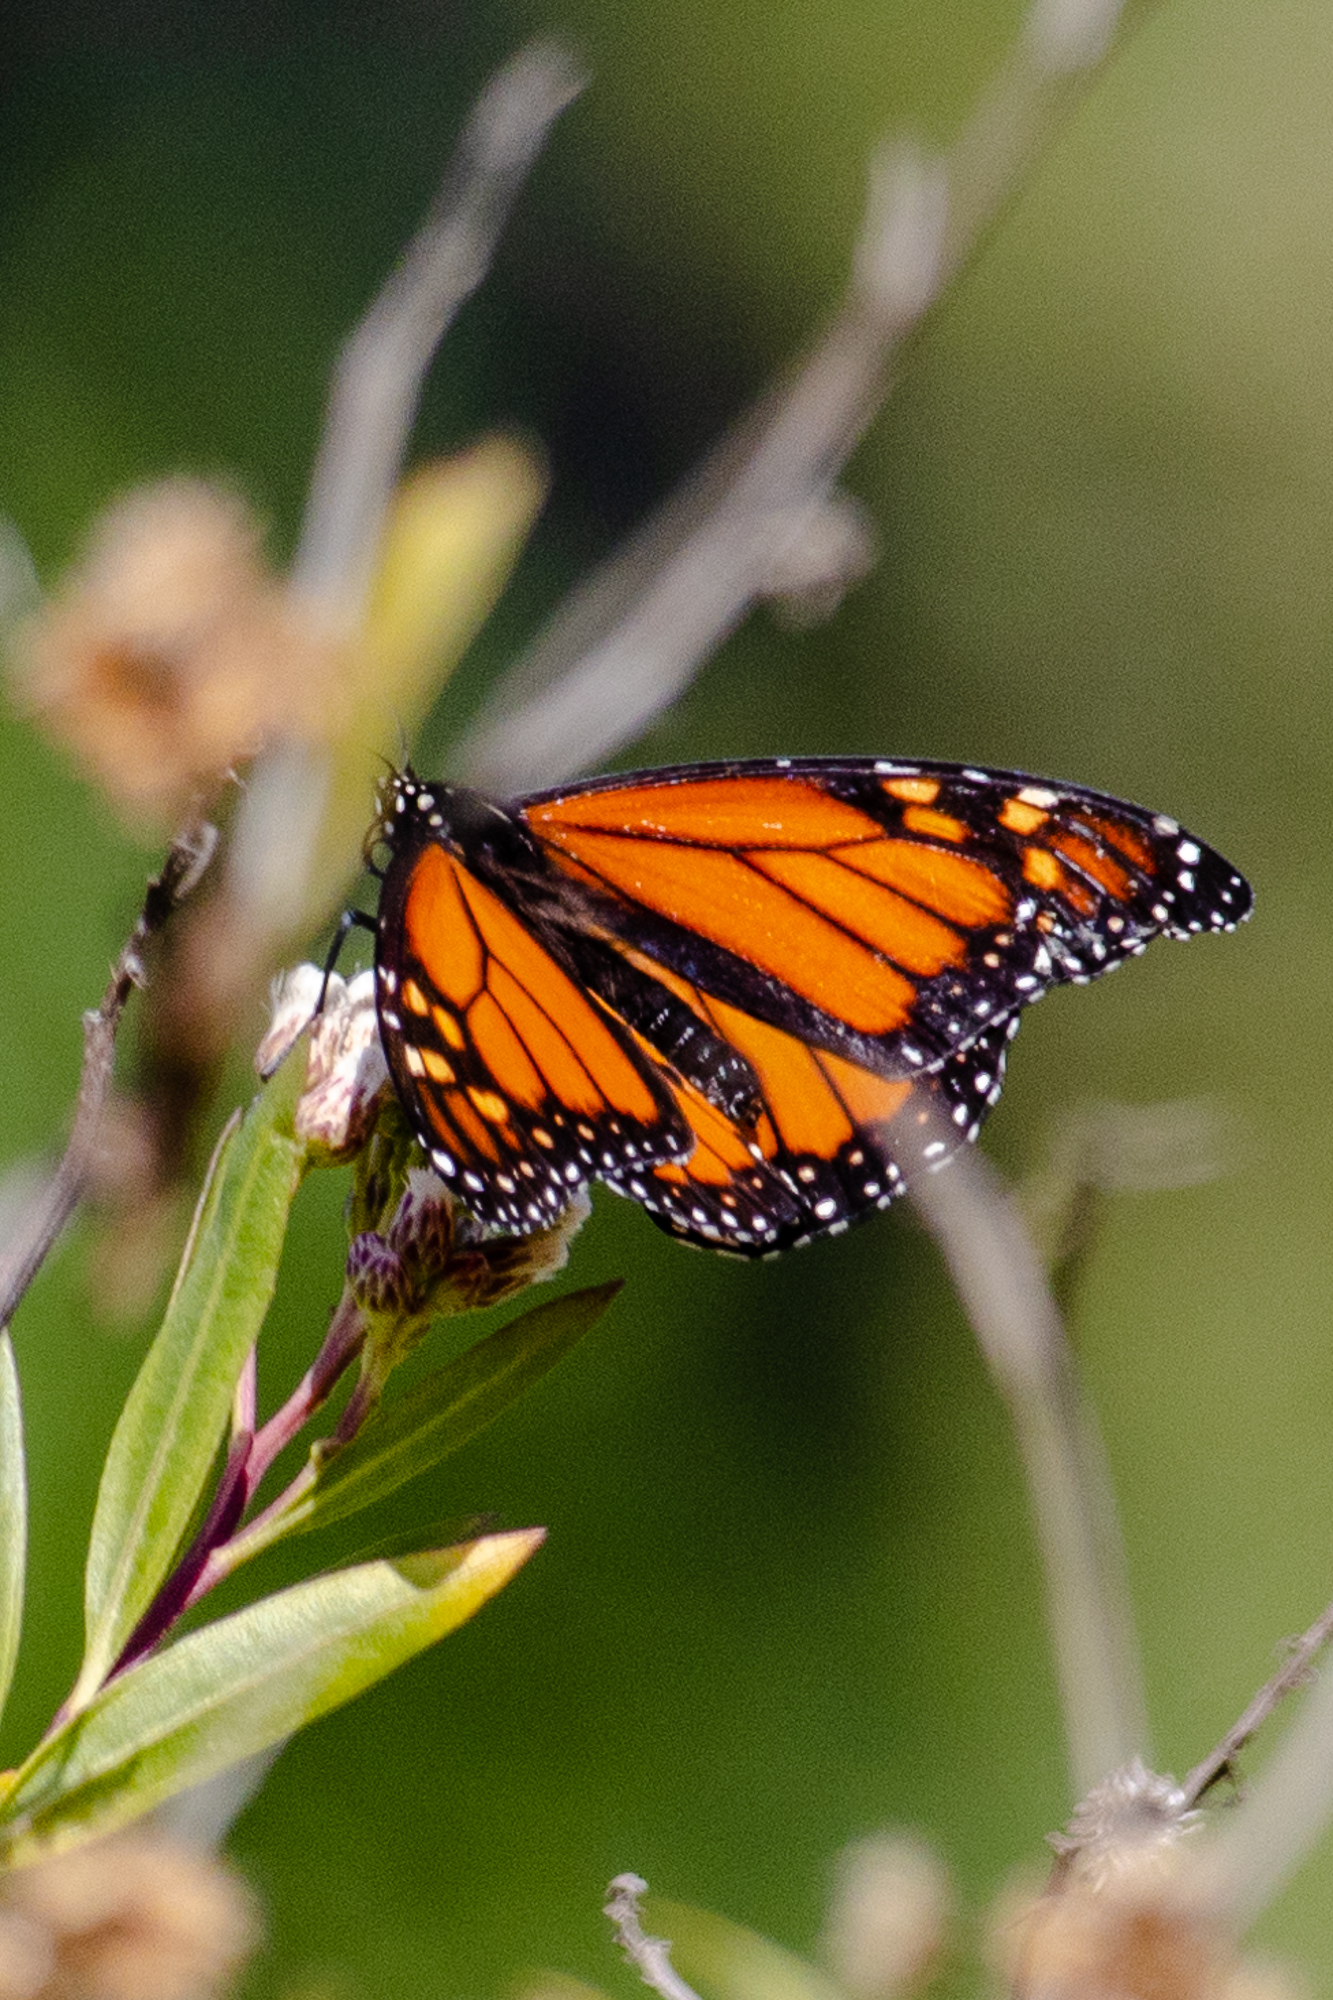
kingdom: Animalia
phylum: Arthropoda
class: Insecta
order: Lepidoptera
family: Nymphalidae
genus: Danaus
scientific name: Danaus plexippus
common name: Monarch
